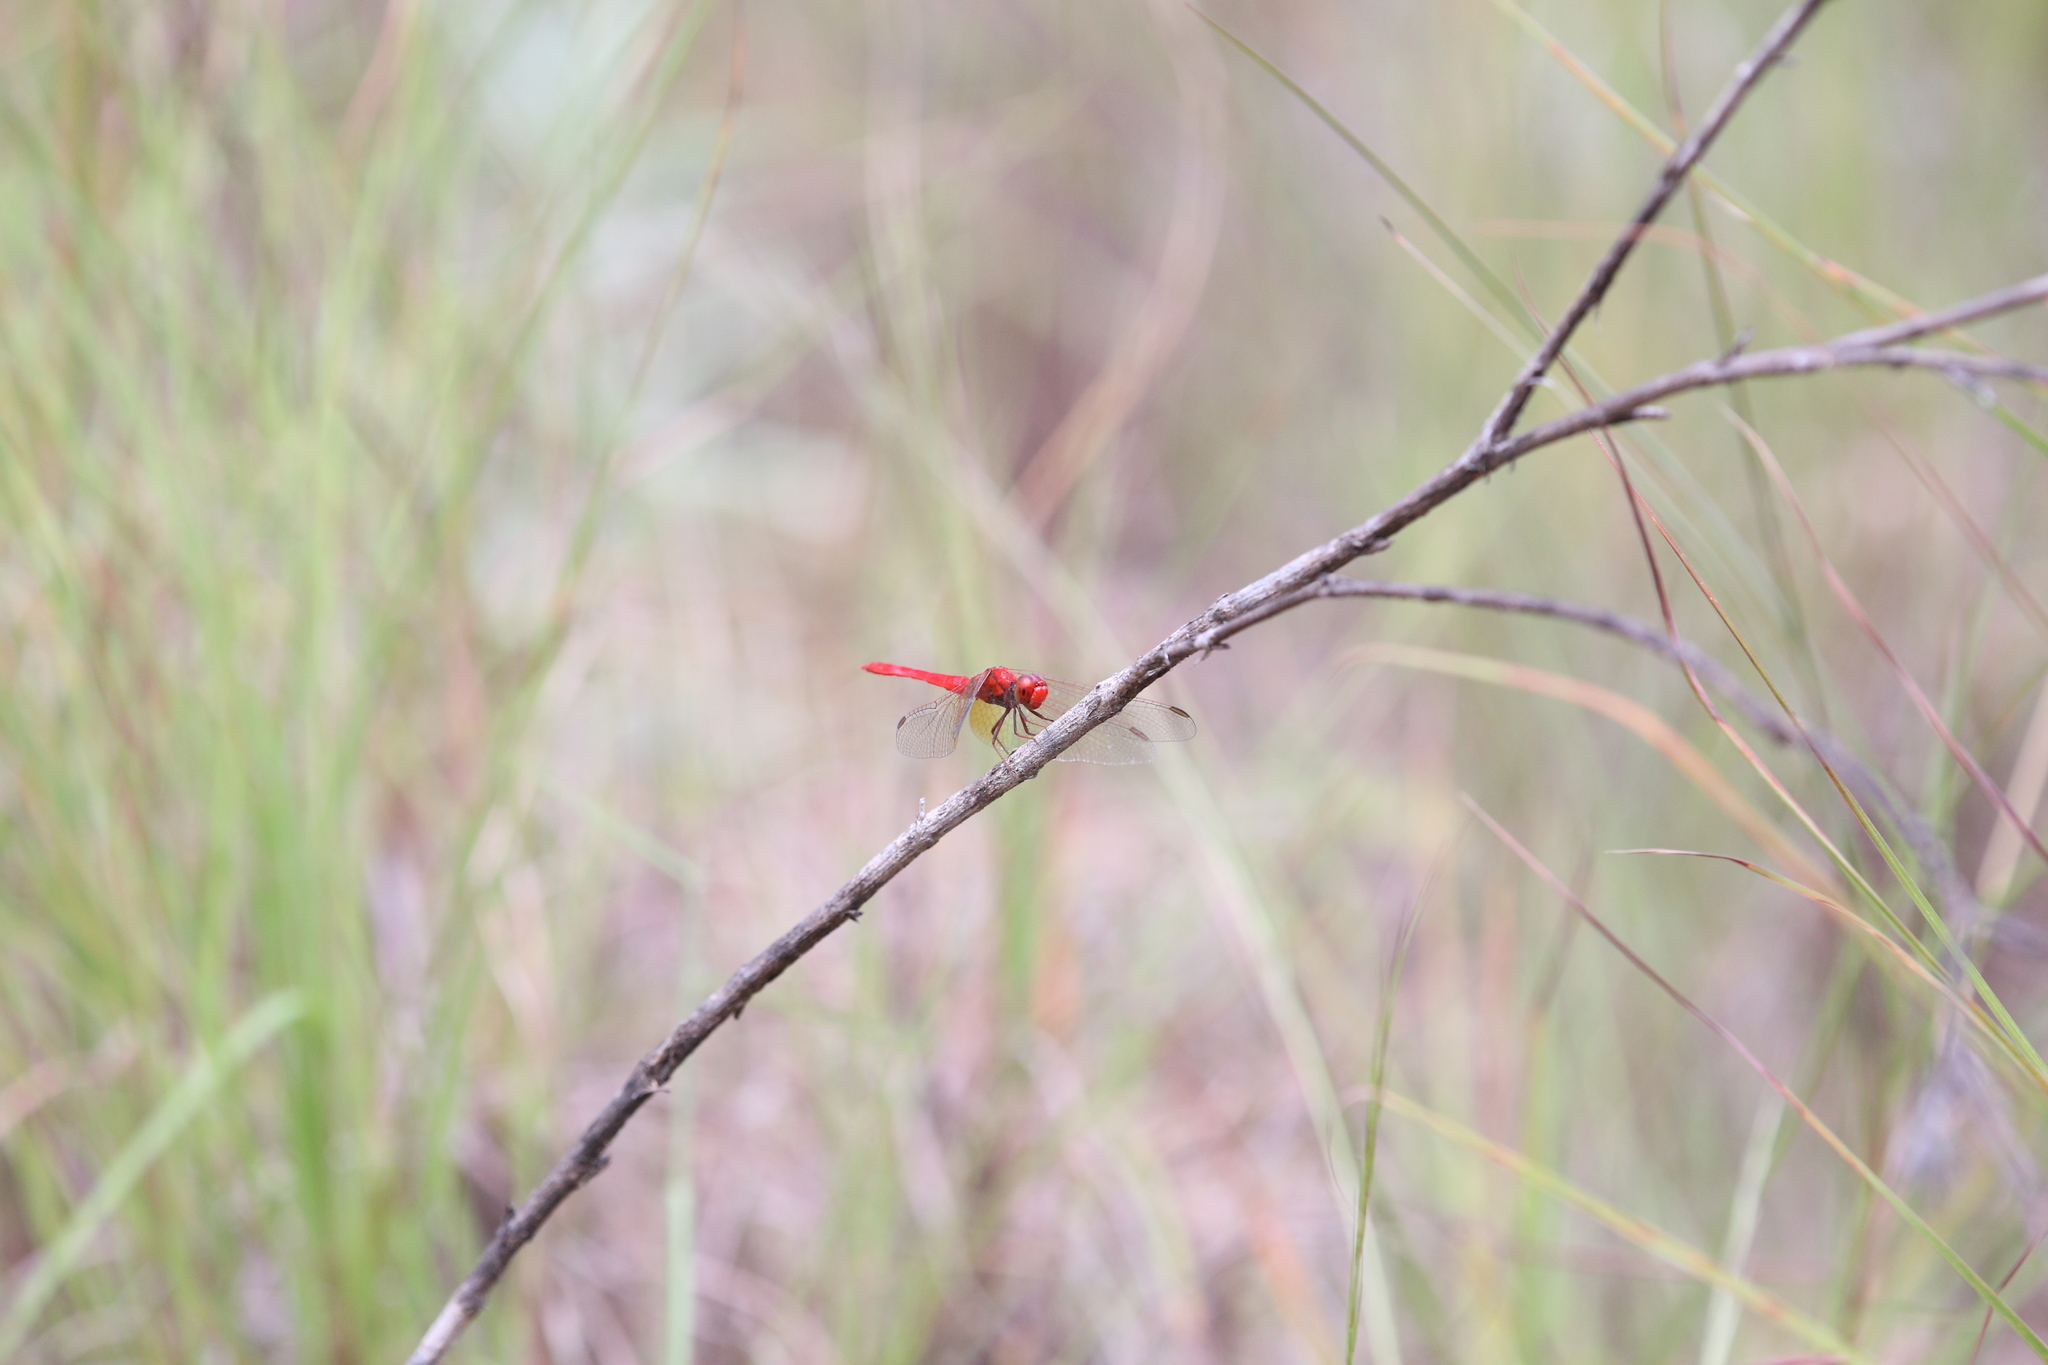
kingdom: Animalia
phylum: Arthropoda
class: Insecta
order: Odonata
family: Libellulidae
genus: Diplacodes
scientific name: Diplacodes haematodes
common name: Scarlet percher
